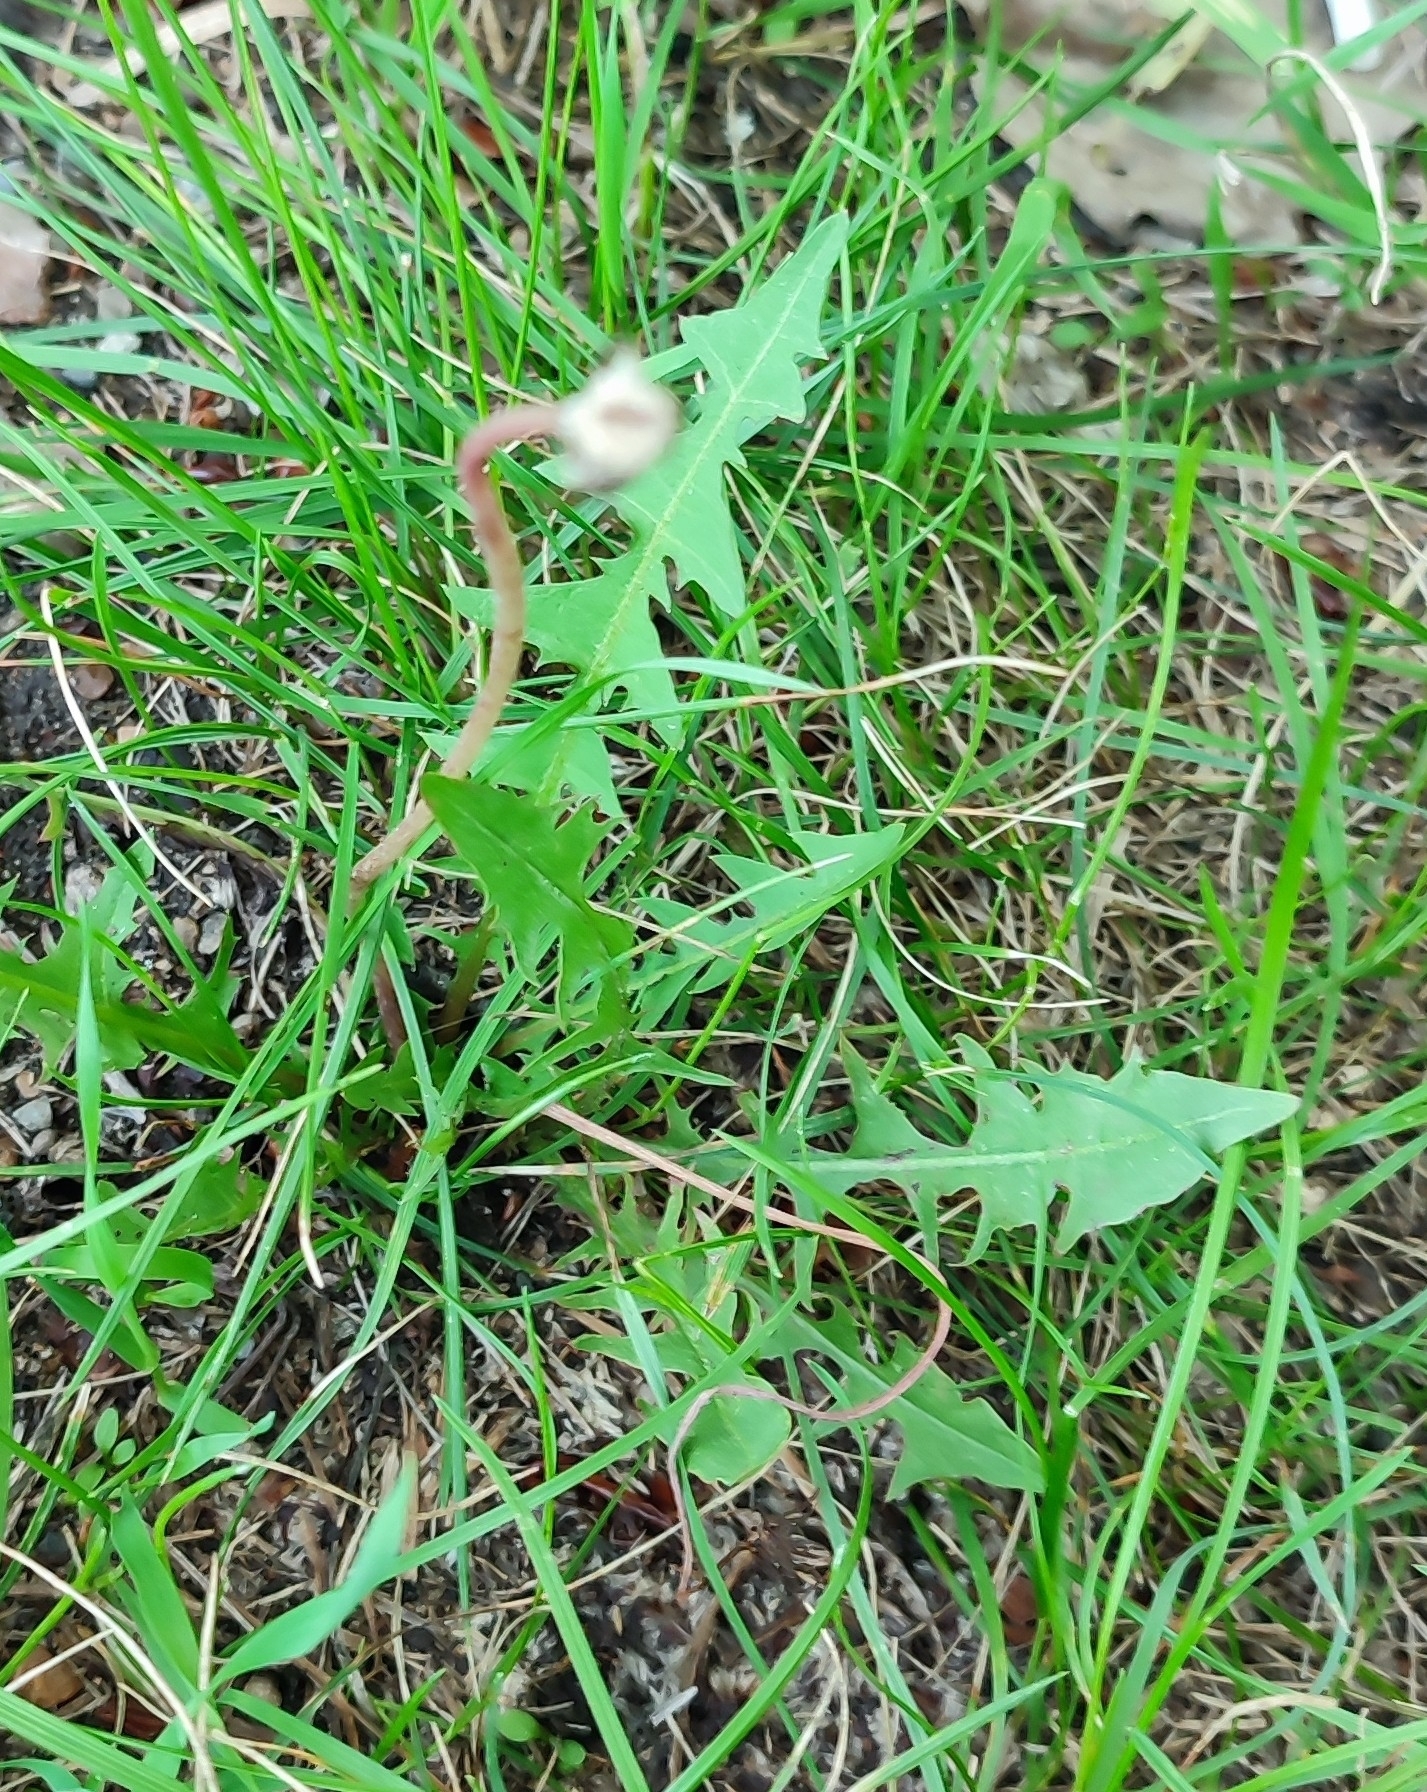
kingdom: Plantae
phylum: Tracheophyta
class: Magnoliopsida
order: Asterales
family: Asteraceae
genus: Taraxacum
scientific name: Taraxacum officinale
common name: Common dandelion
